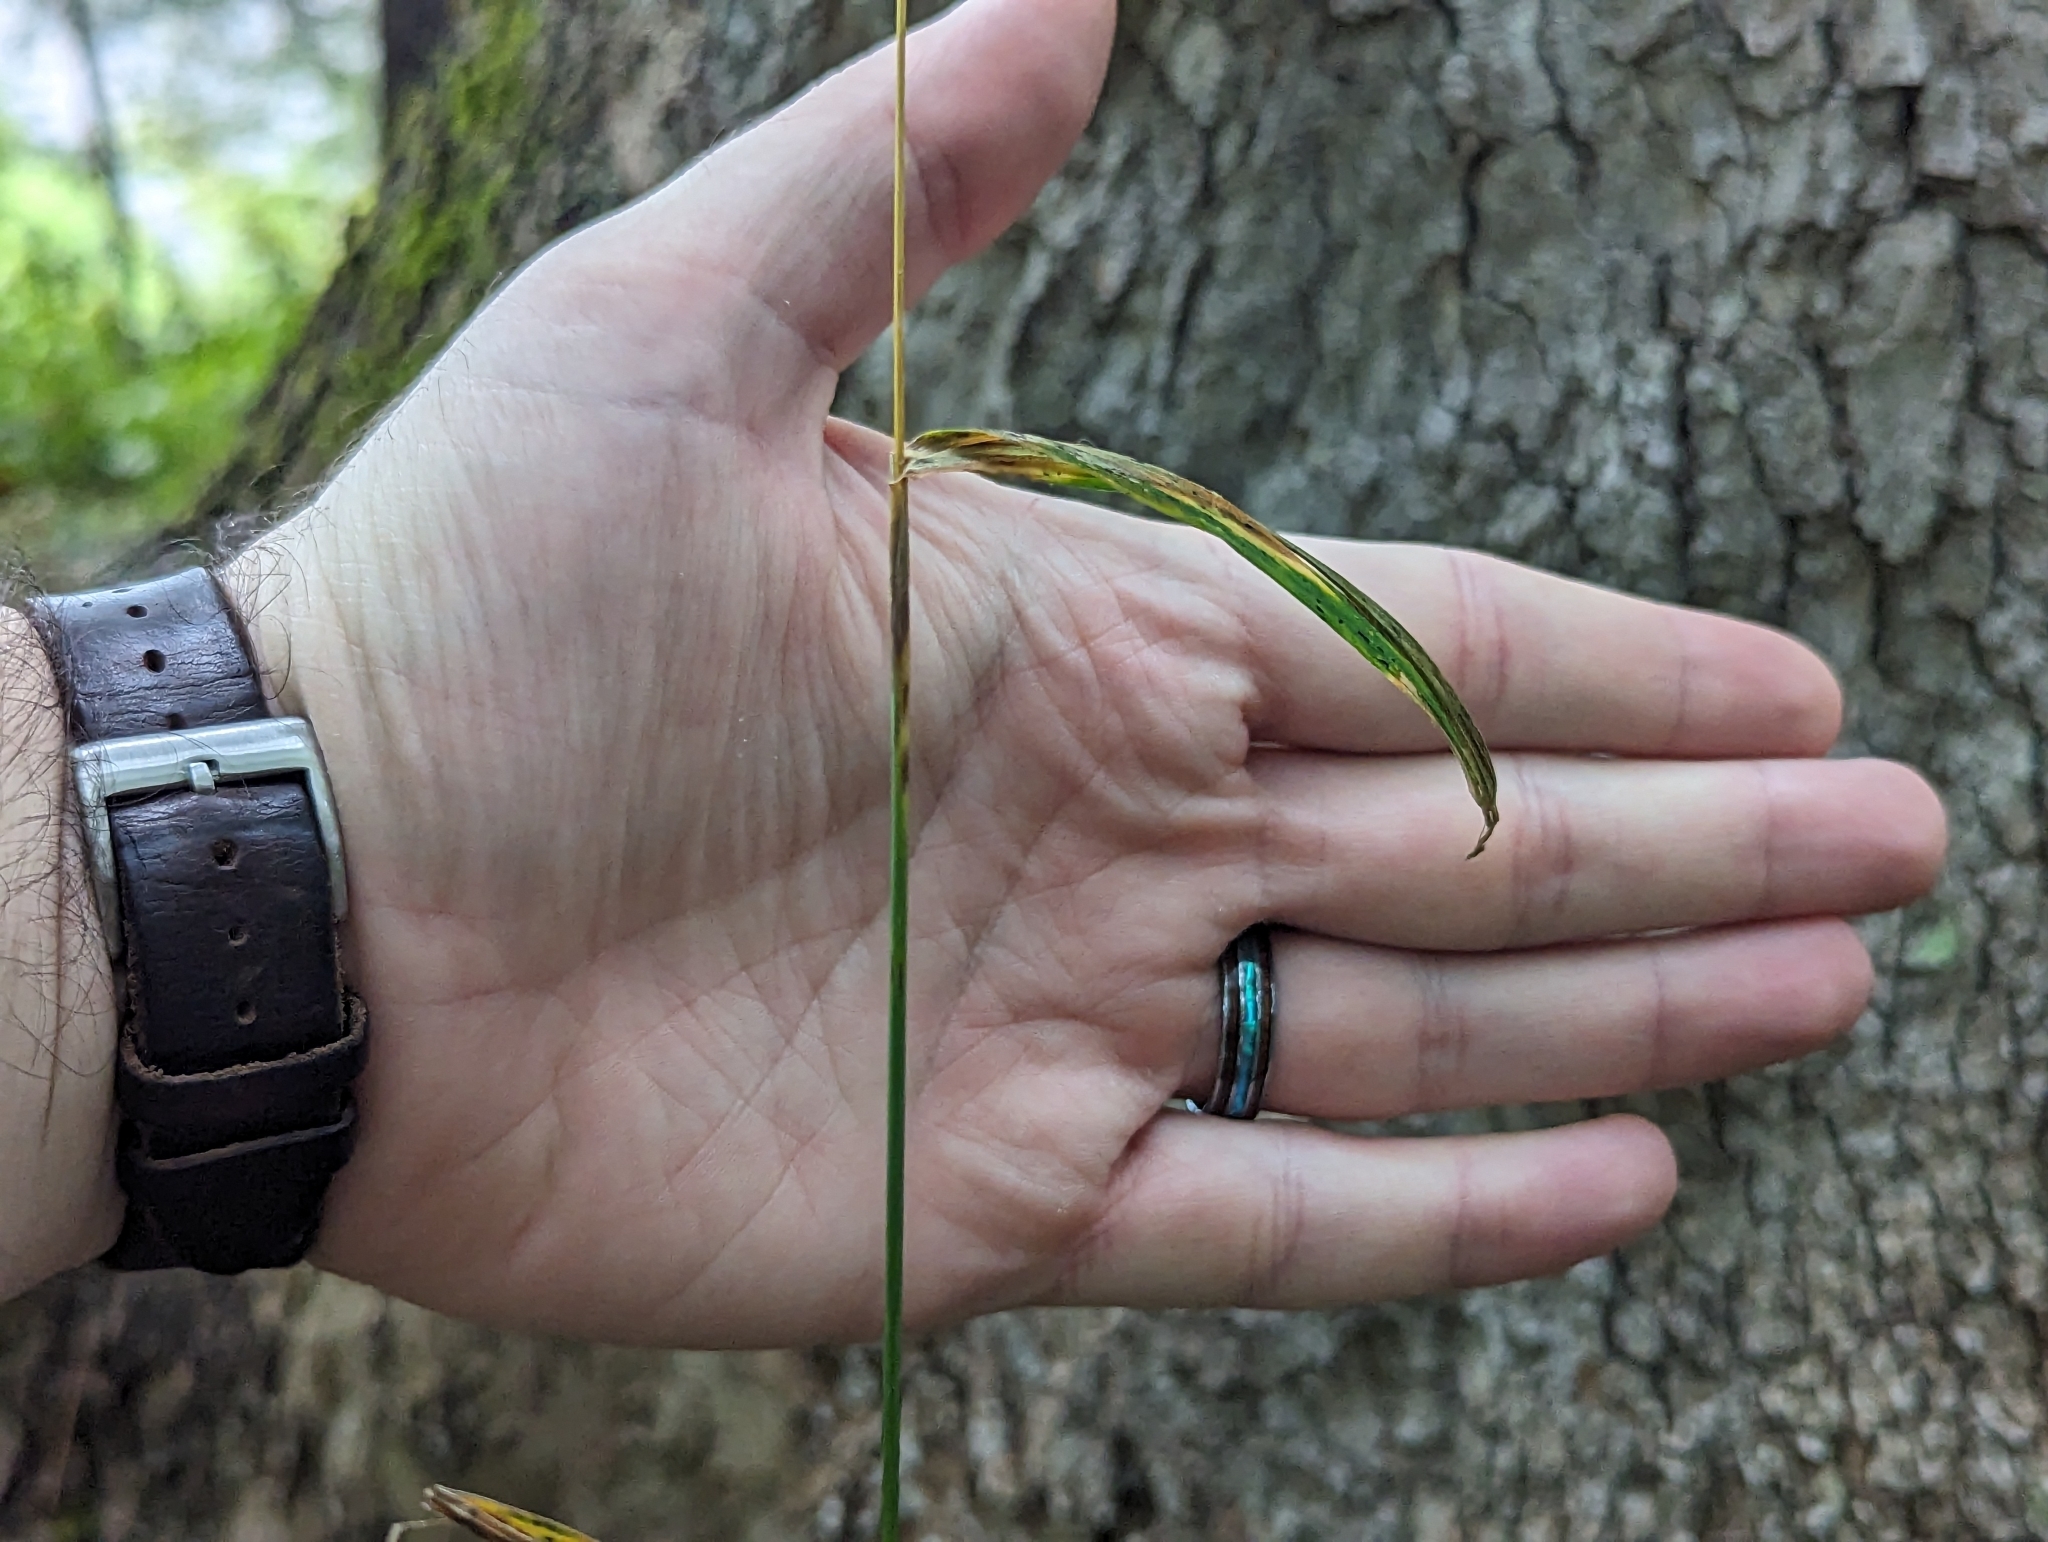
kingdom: Plantae
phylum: Tracheophyta
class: Liliopsida
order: Poales
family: Poaceae
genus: Elymus
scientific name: Elymus hystrix
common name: Bottlebrush grass
